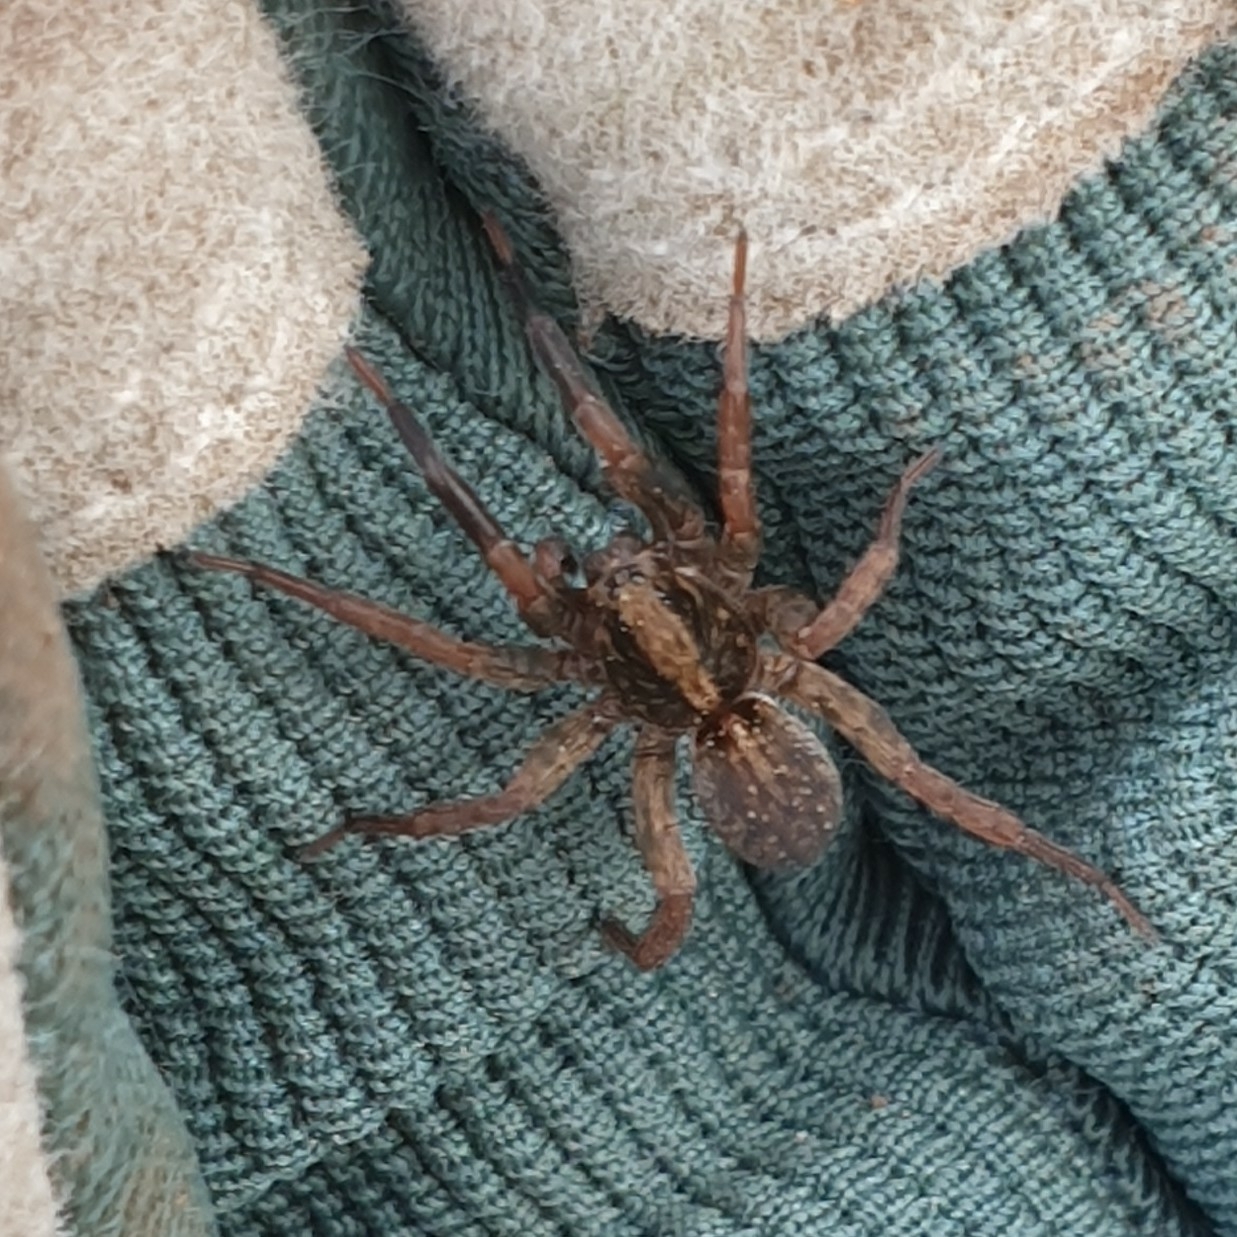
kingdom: Animalia
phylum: Arthropoda
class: Arachnida
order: Araneae
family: Lycosidae
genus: Trochosa
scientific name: Trochosa
